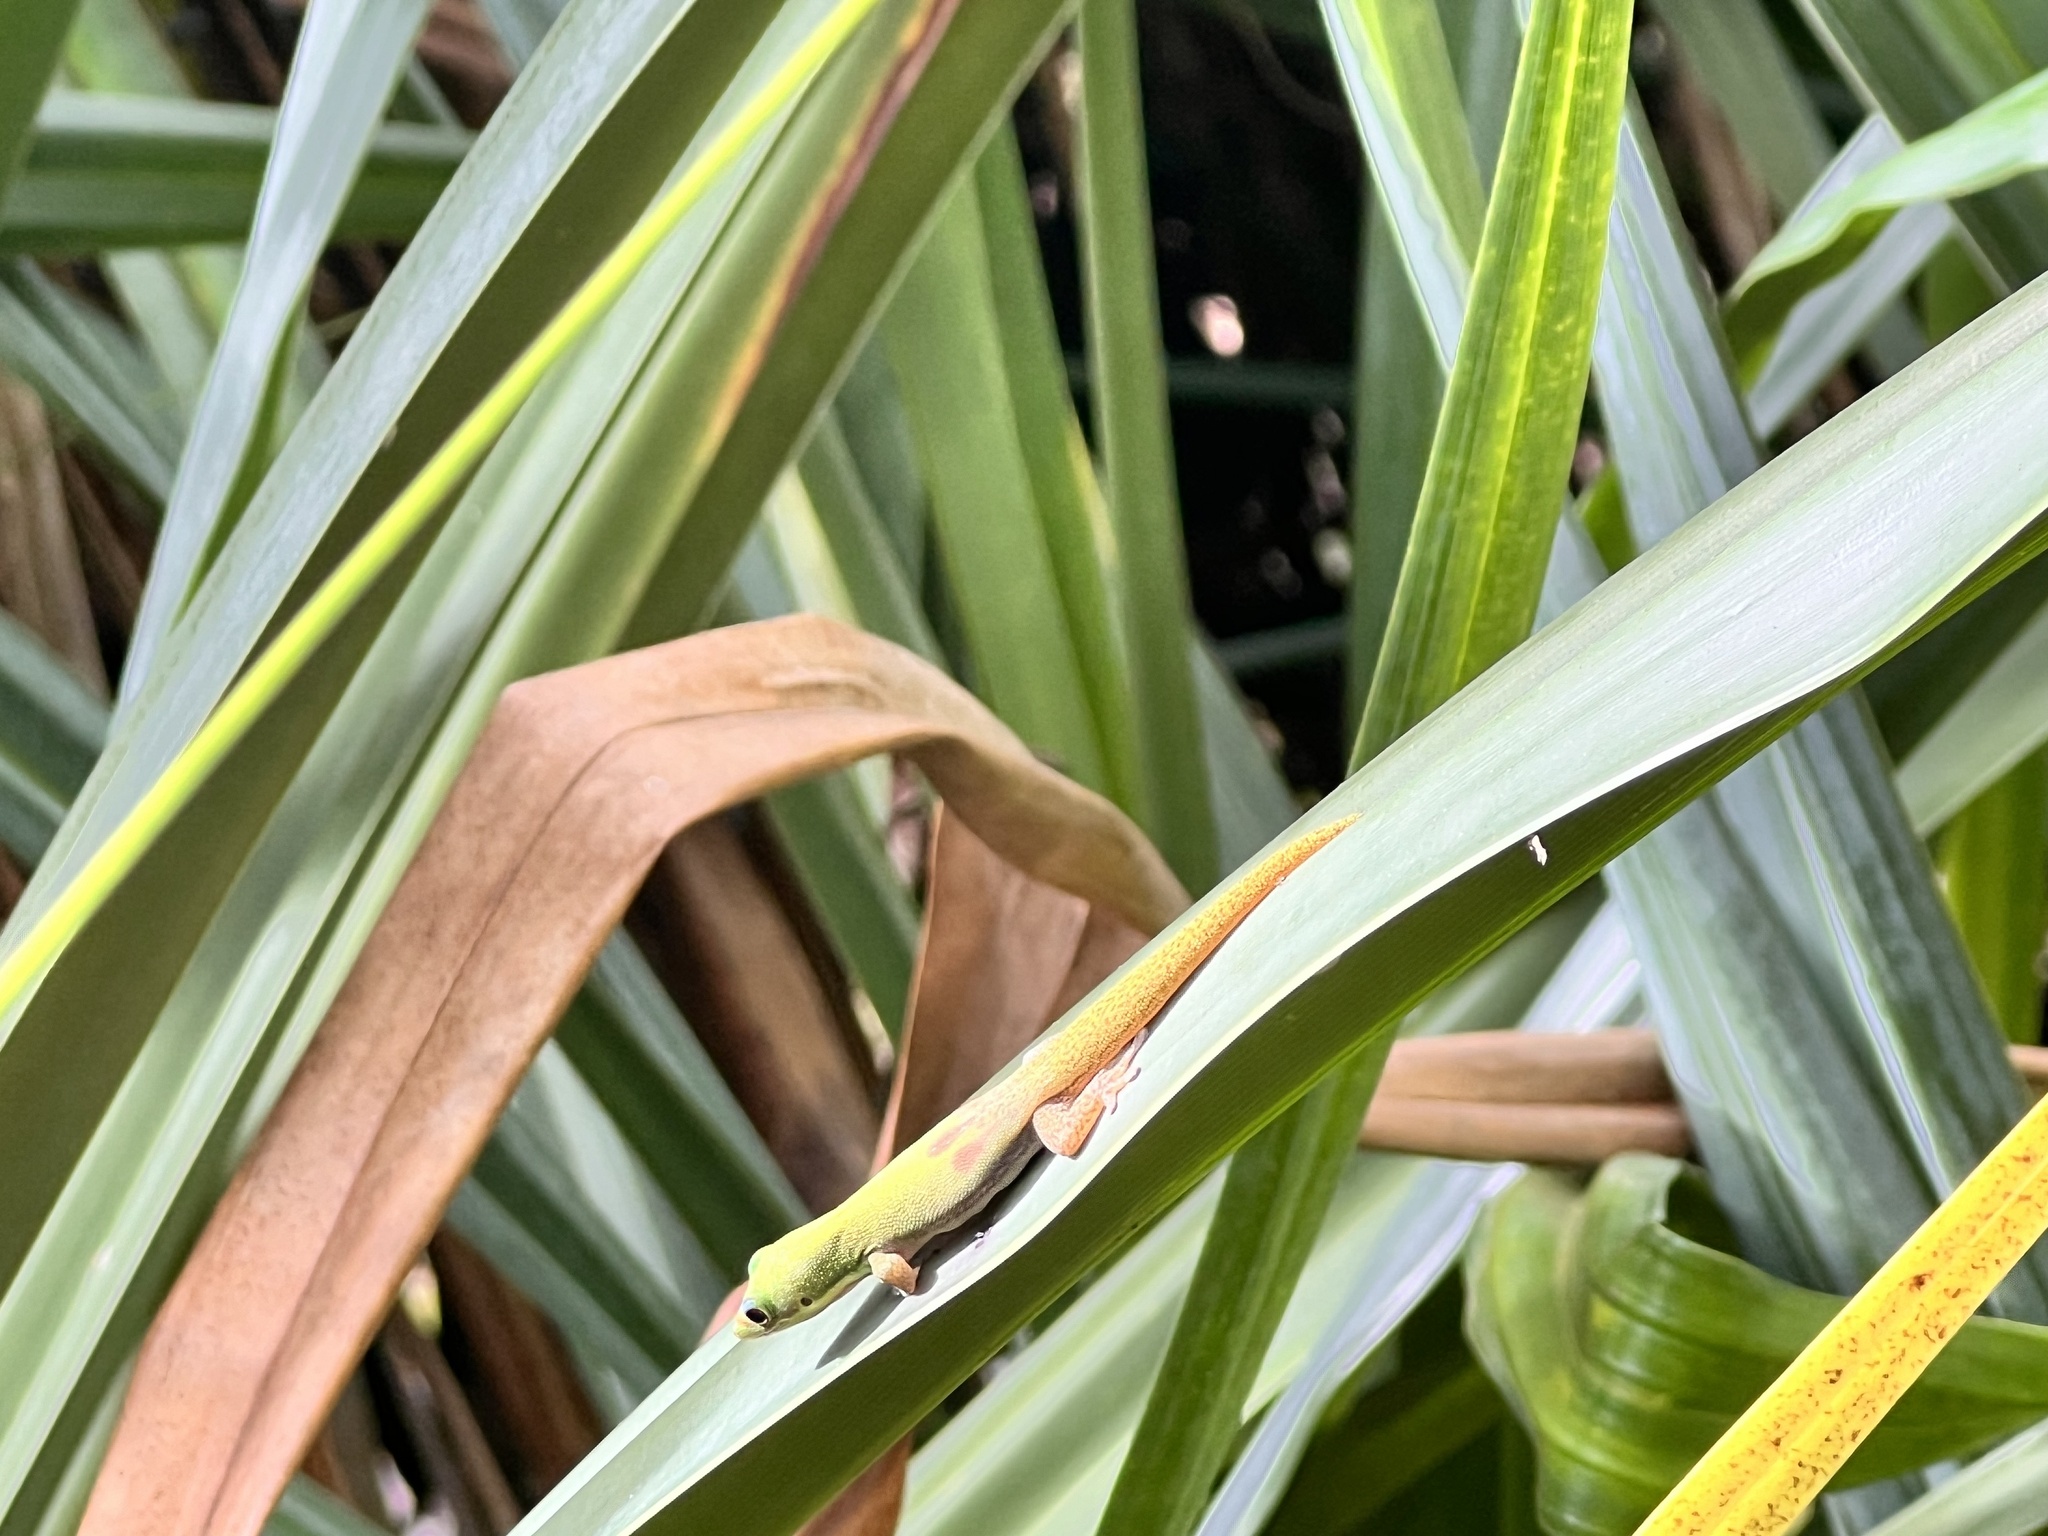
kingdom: Animalia
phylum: Chordata
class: Squamata
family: Gekkonidae
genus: Phelsuma
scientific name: Phelsuma laticauda
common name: Gold dust day gecko
